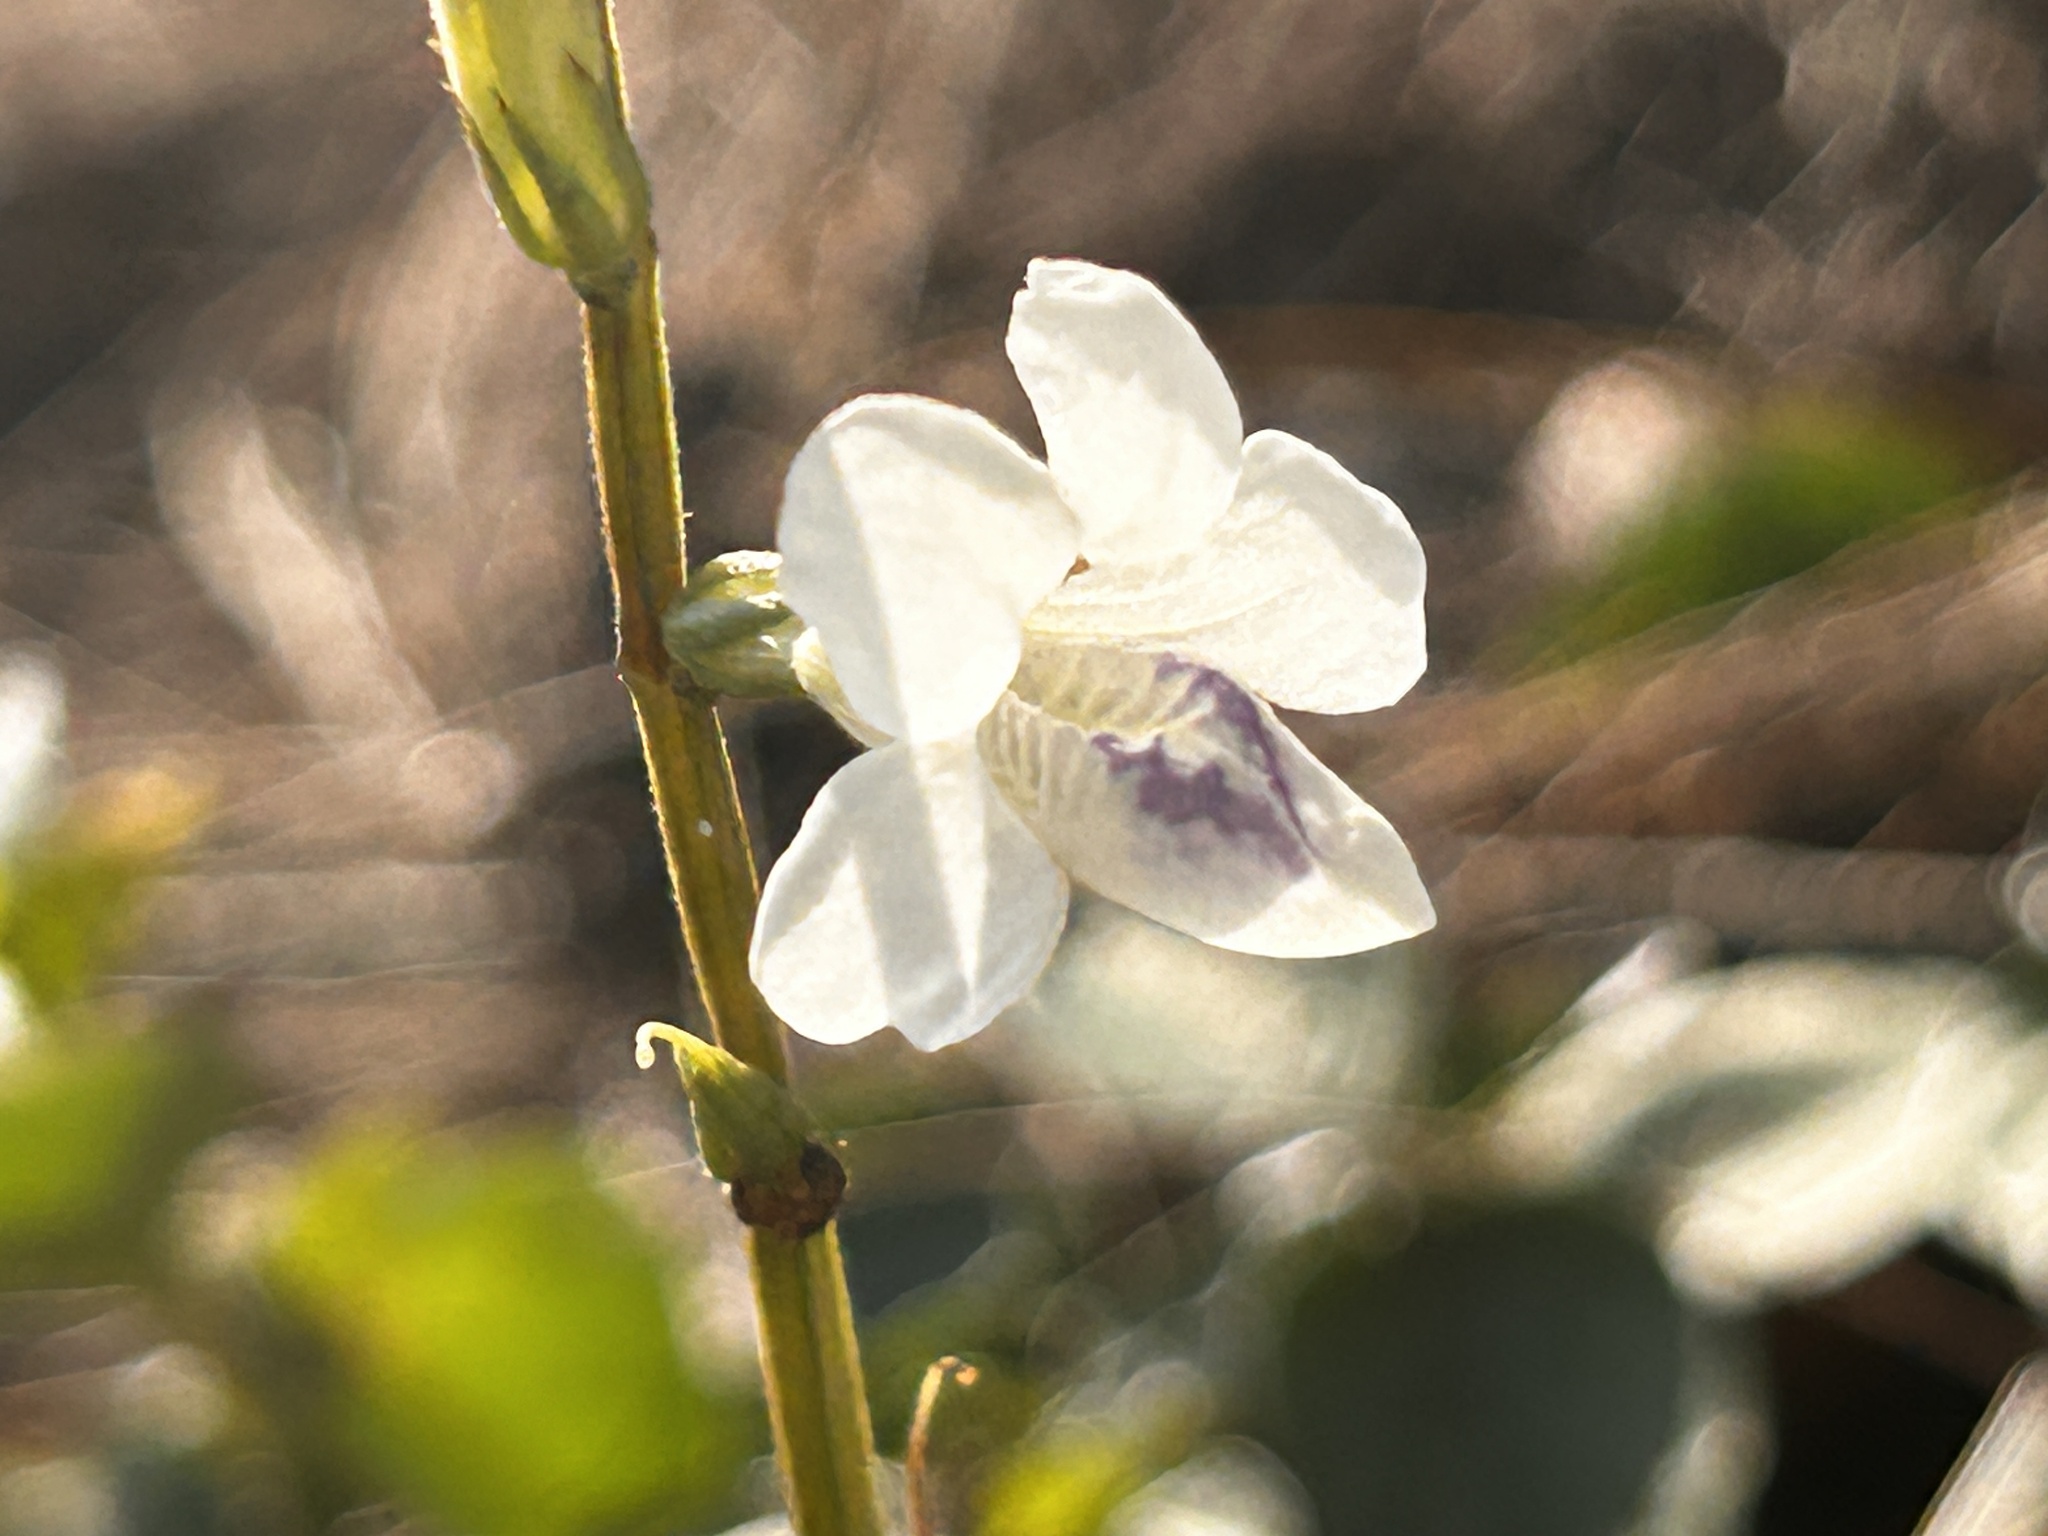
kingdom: Plantae
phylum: Tracheophyta
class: Magnoliopsida
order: Lamiales
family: Acanthaceae
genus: Asystasia
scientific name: Asystasia intrusa
